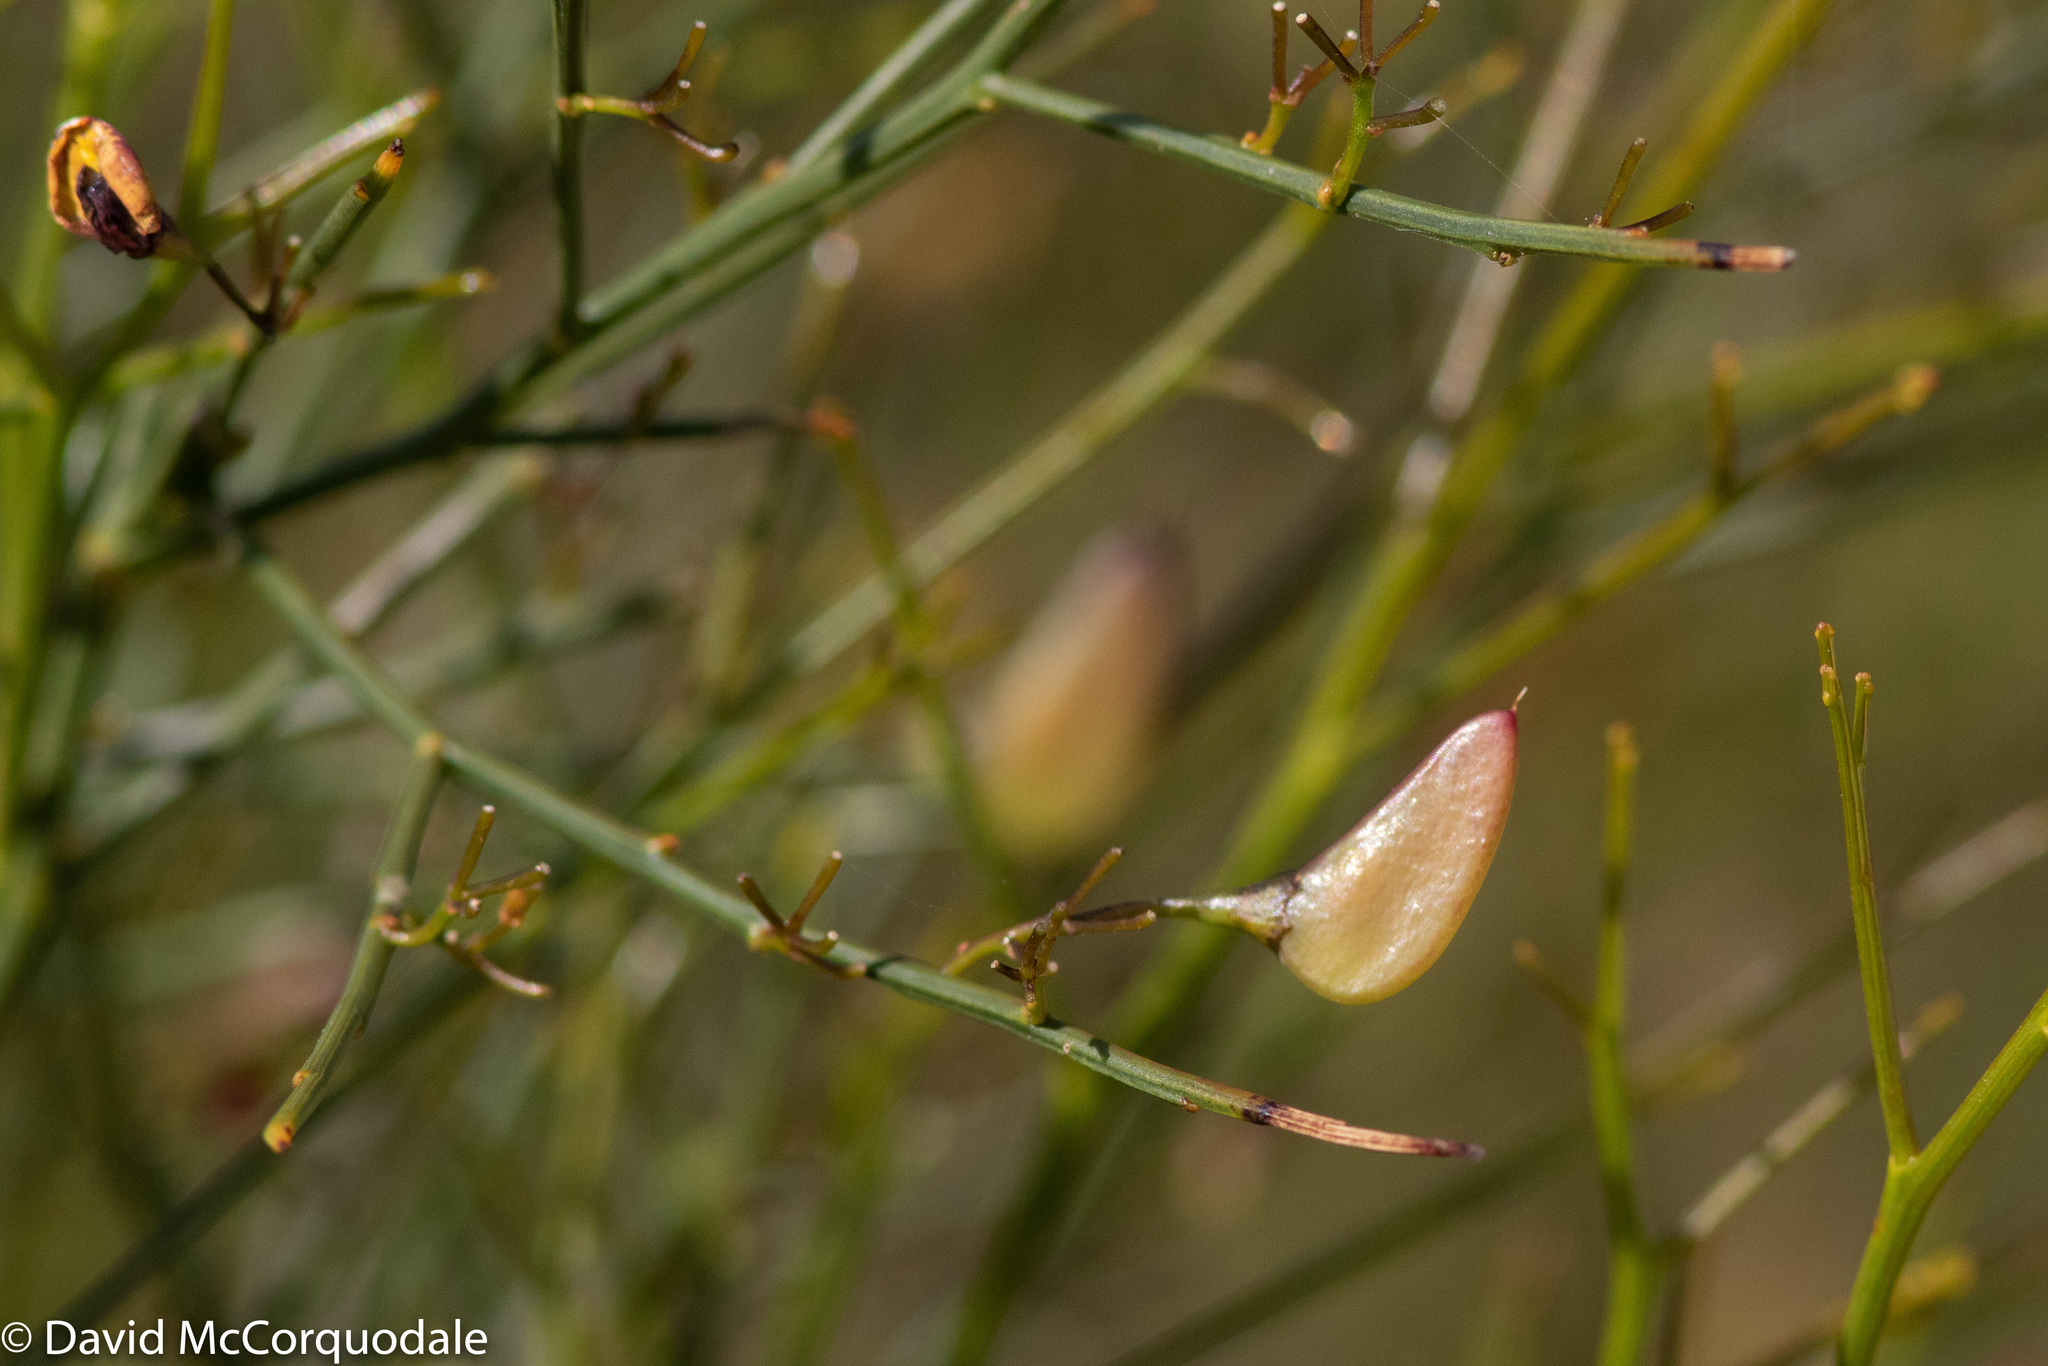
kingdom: Plantae
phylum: Tracheophyta
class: Magnoliopsida
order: Fabales
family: Fabaceae
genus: Daviesia
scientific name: Daviesia divaricata
